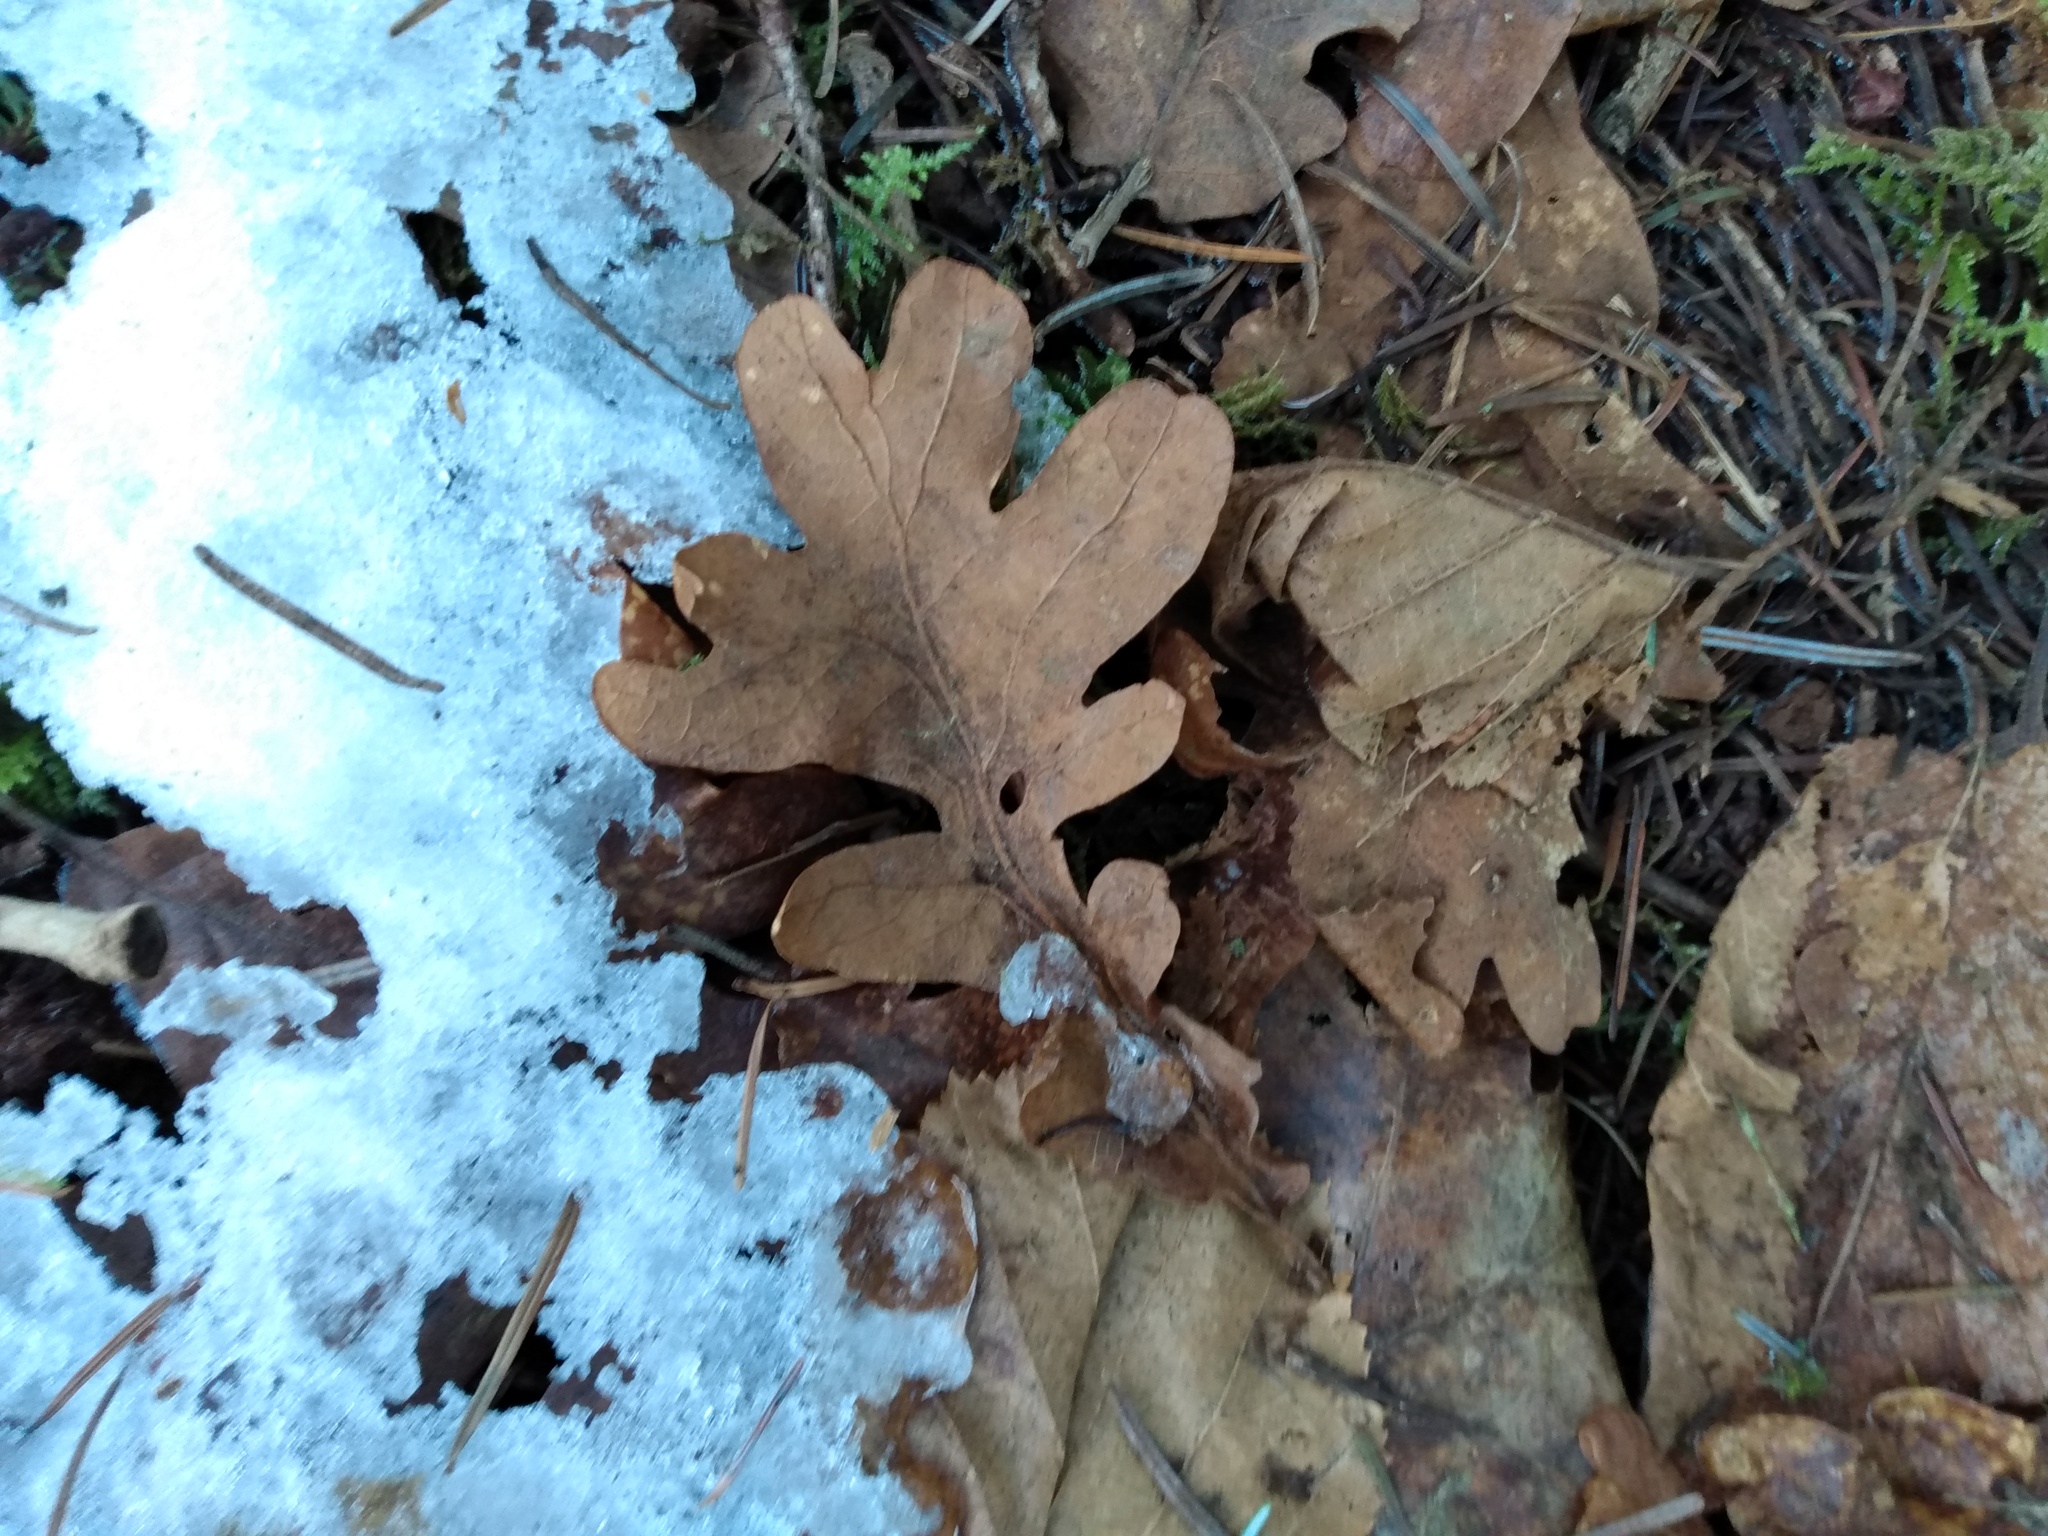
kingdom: Plantae
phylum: Tracheophyta
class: Magnoliopsida
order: Fagales
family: Fagaceae
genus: Quercus
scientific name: Quercus garryana
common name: Garry oak
